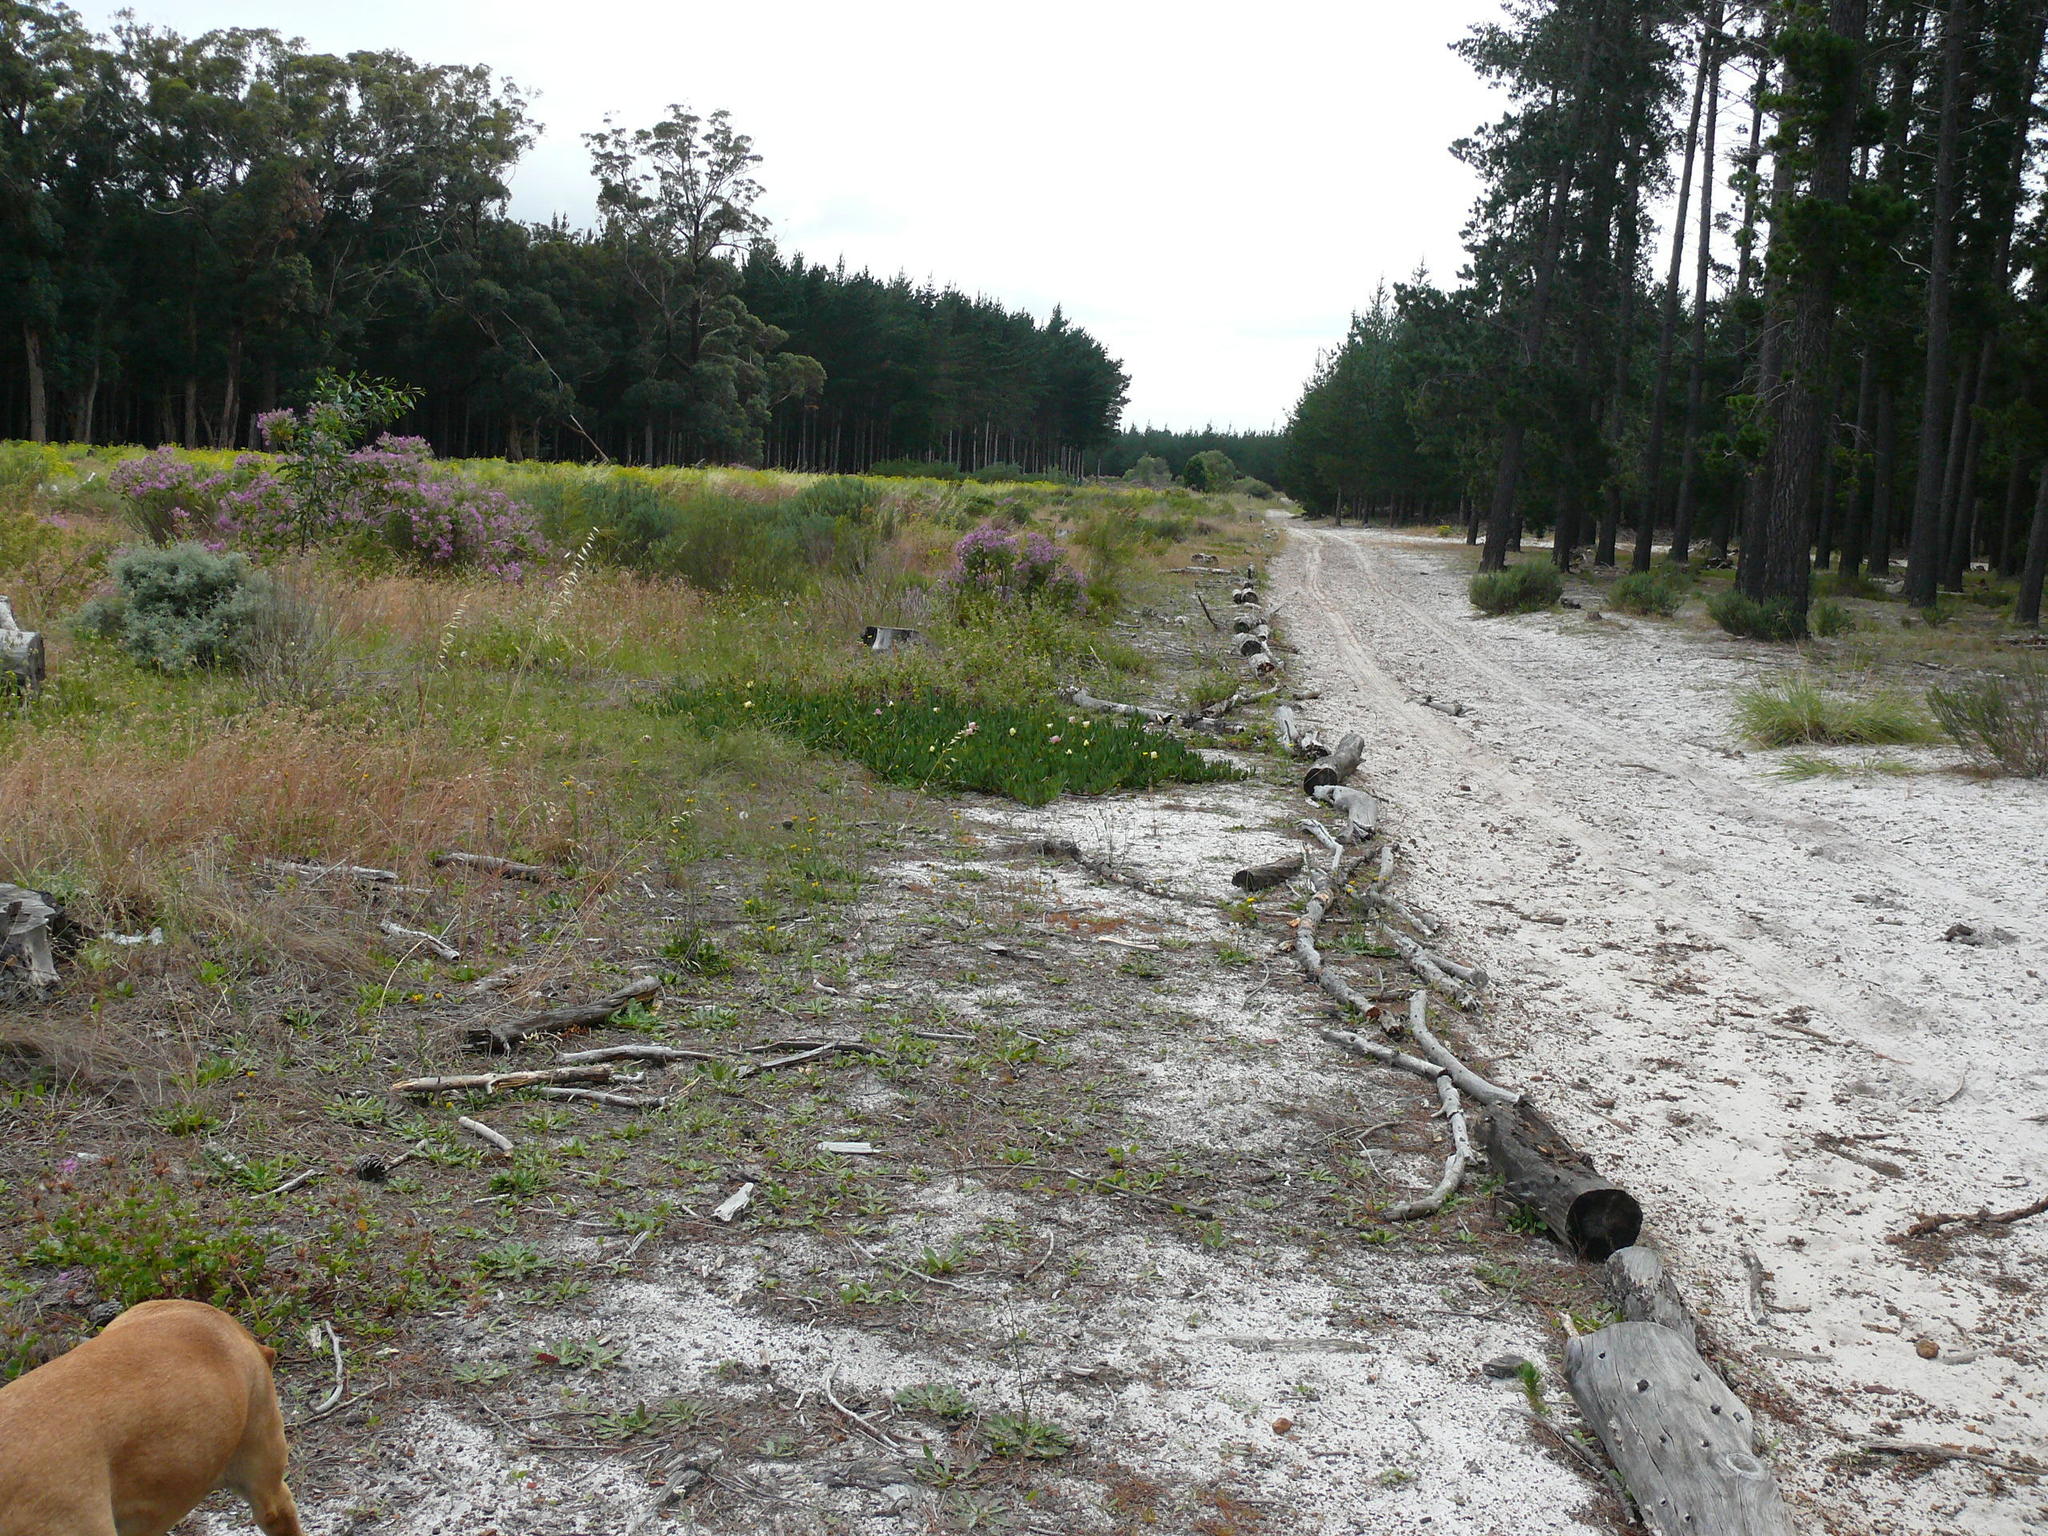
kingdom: Plantae
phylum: Tracheophyta
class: Magnoliopsida
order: Caryophyllales
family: Aizoaceae
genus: Carpobrotus
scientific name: Carpobrotus edulis
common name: Hottentot-fig
